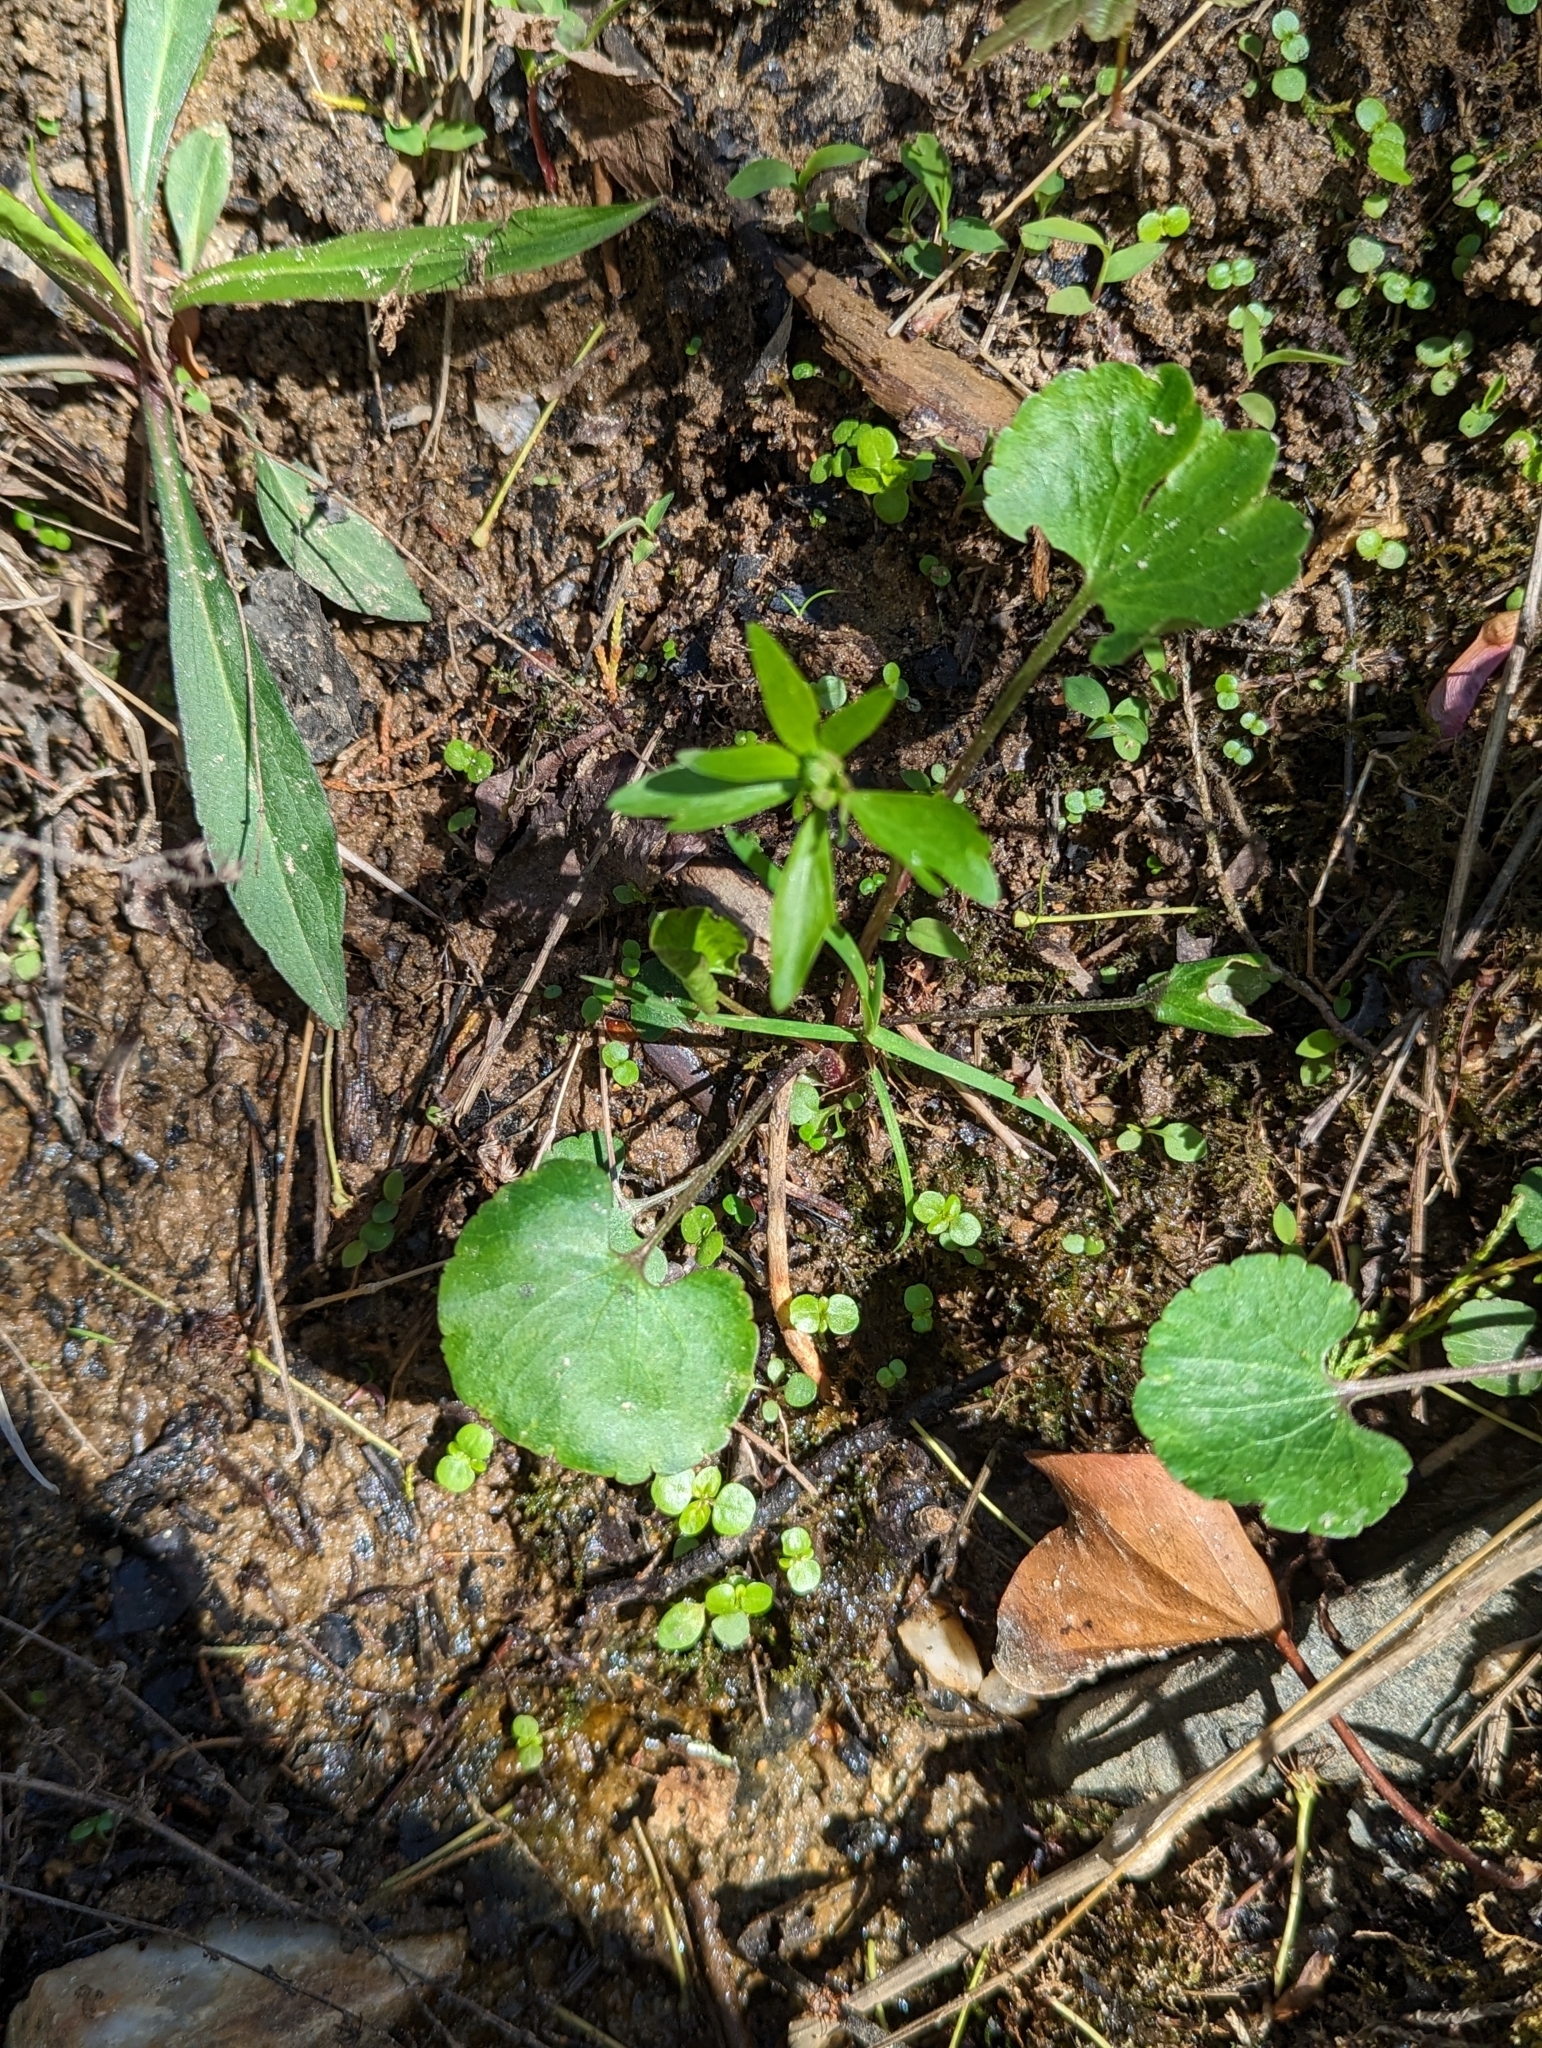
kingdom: Plantae
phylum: Tracheophyta
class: Magnoliopsida
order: Ranunculales
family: Ranunculaceae
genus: Ranunculus
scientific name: Ranunculus abortivus
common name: Early wood buttercup
